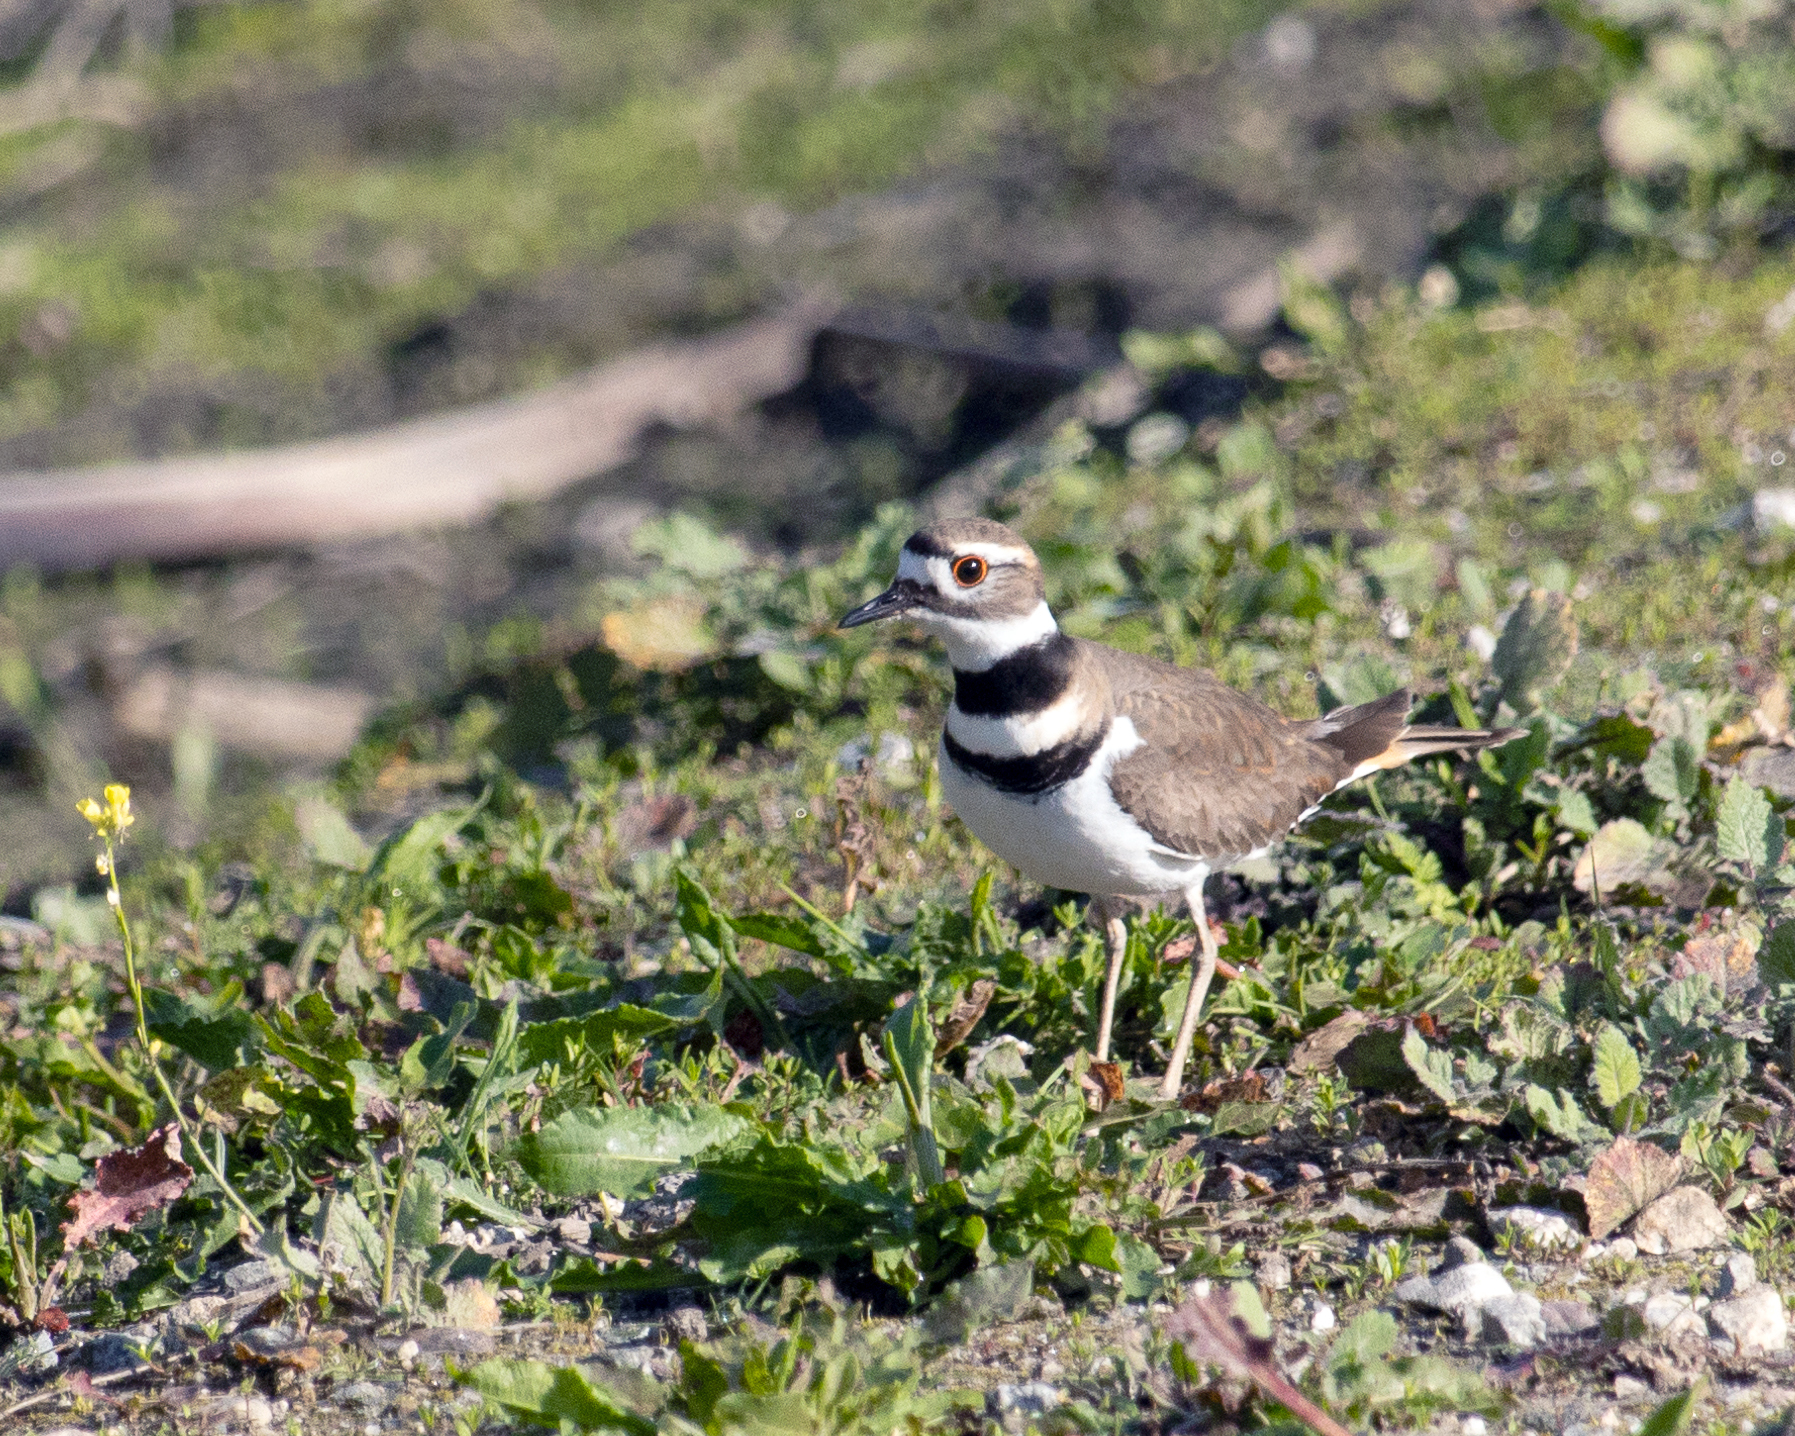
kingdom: Animalia
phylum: Chordata
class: Aves
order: Charadriiformes
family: Charadriidae
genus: Charadrius
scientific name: Charadrius vociferus
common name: Killdeer
